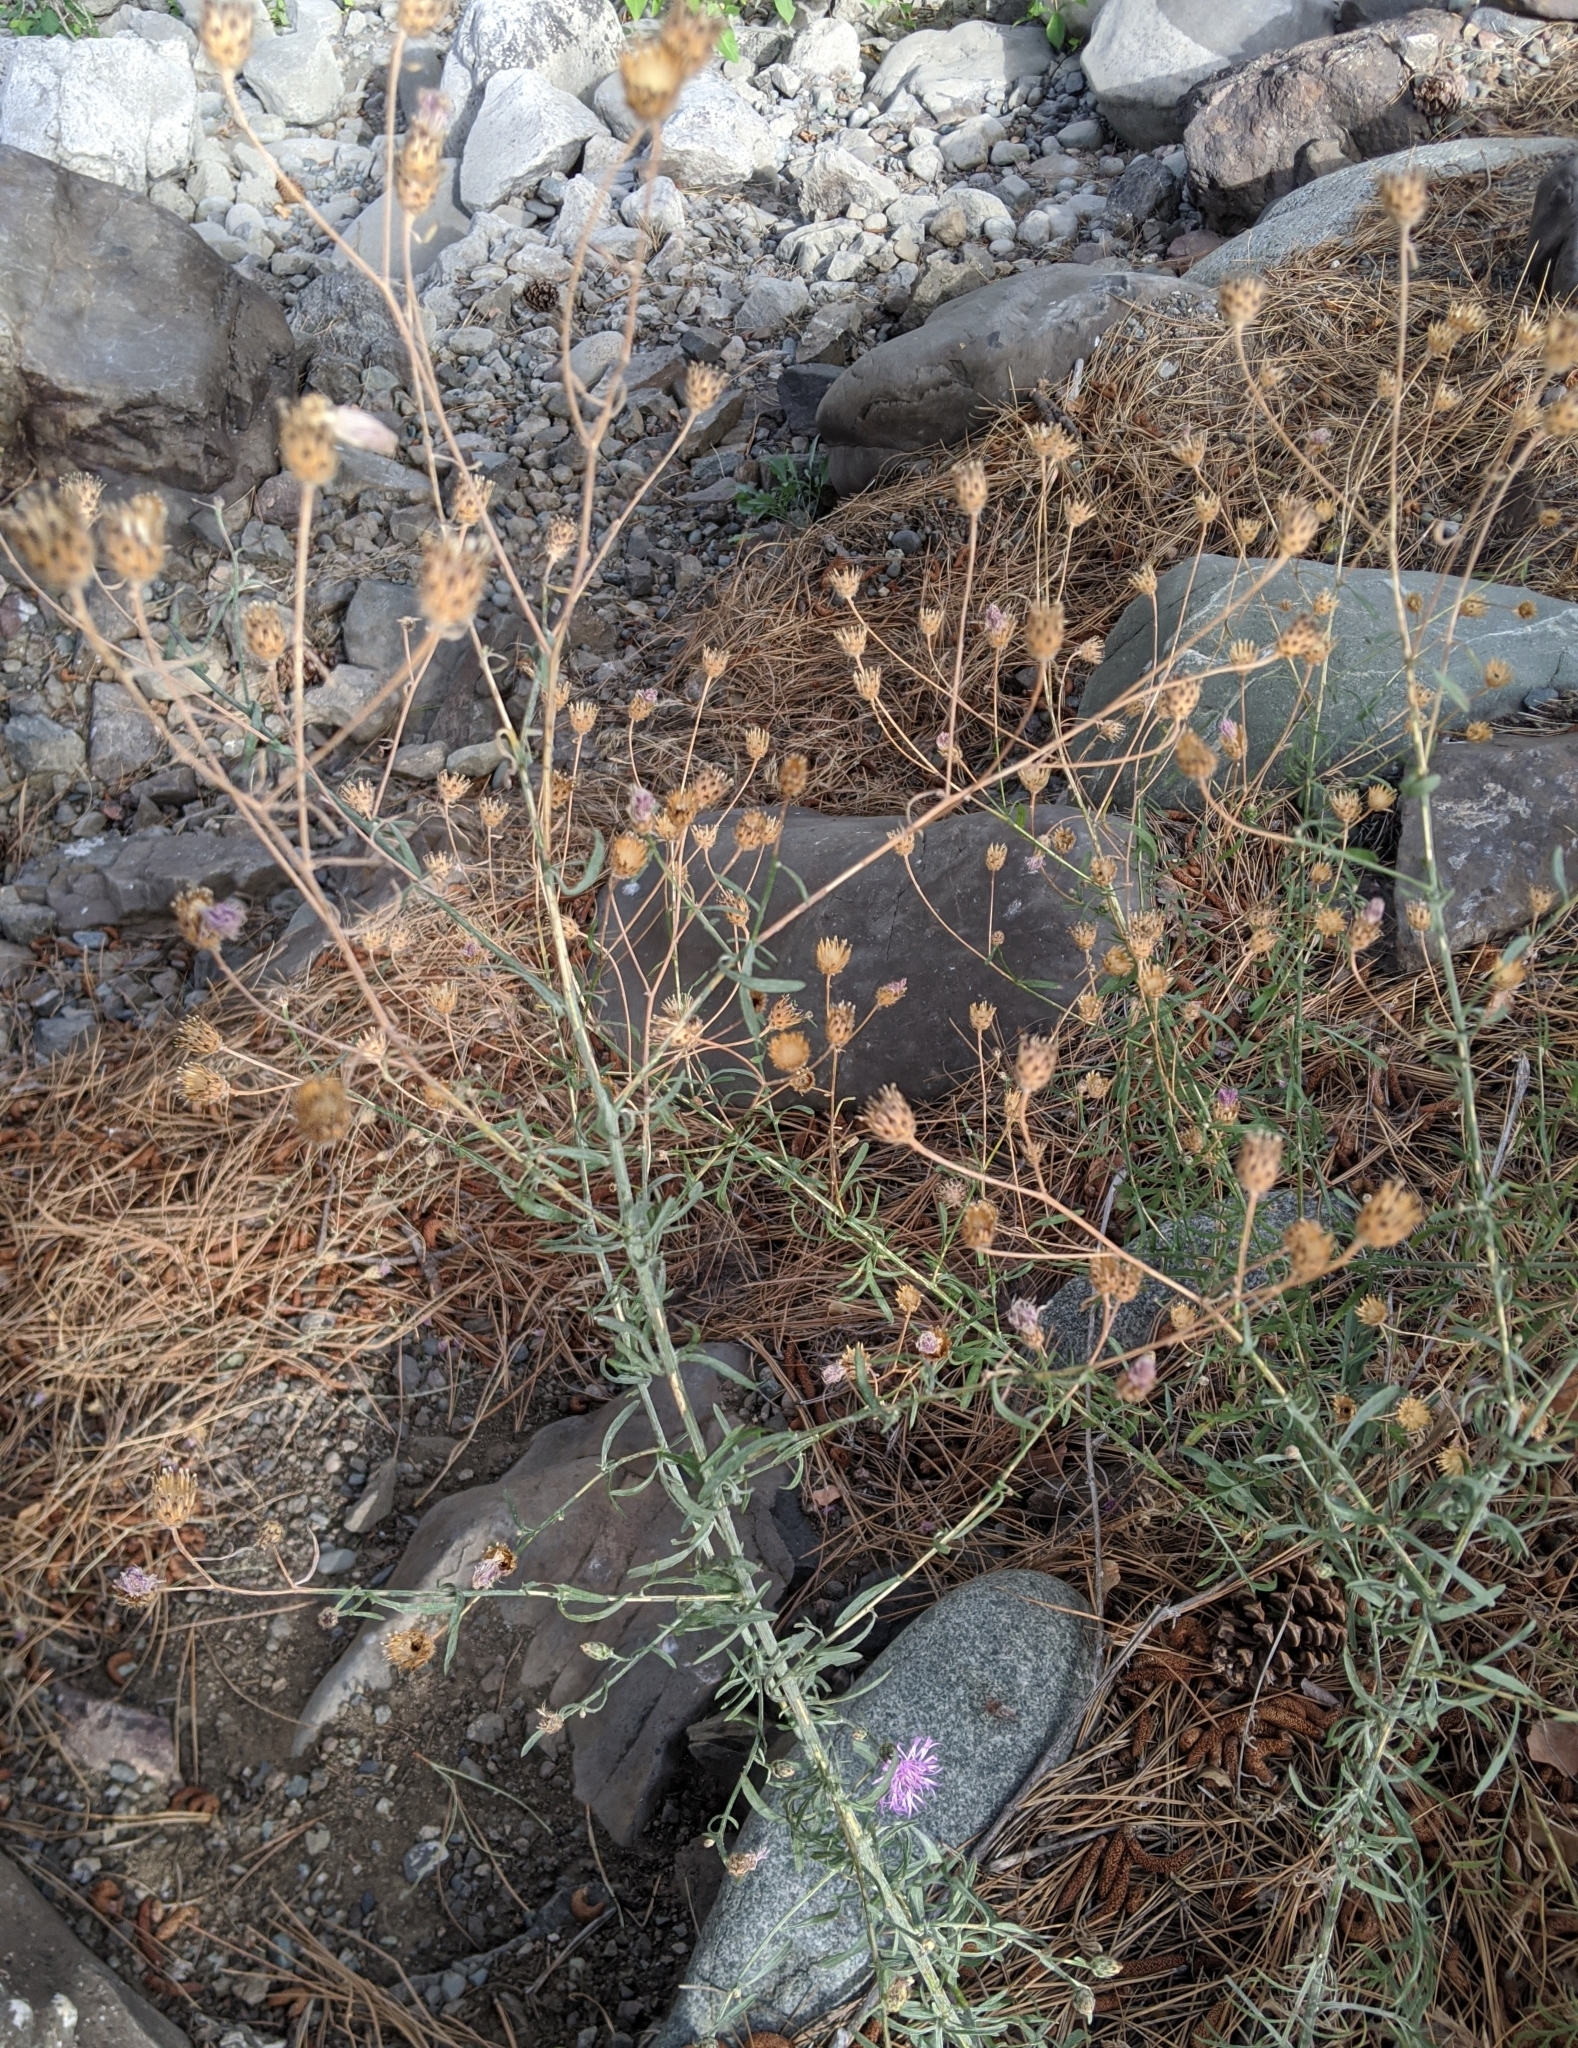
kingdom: Plantae
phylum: Tracheophyta
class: Magnoliopsida
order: Asterales
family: Asteraceae
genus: Centaurea
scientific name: Centaurea stoebe
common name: Spotted knapweed
